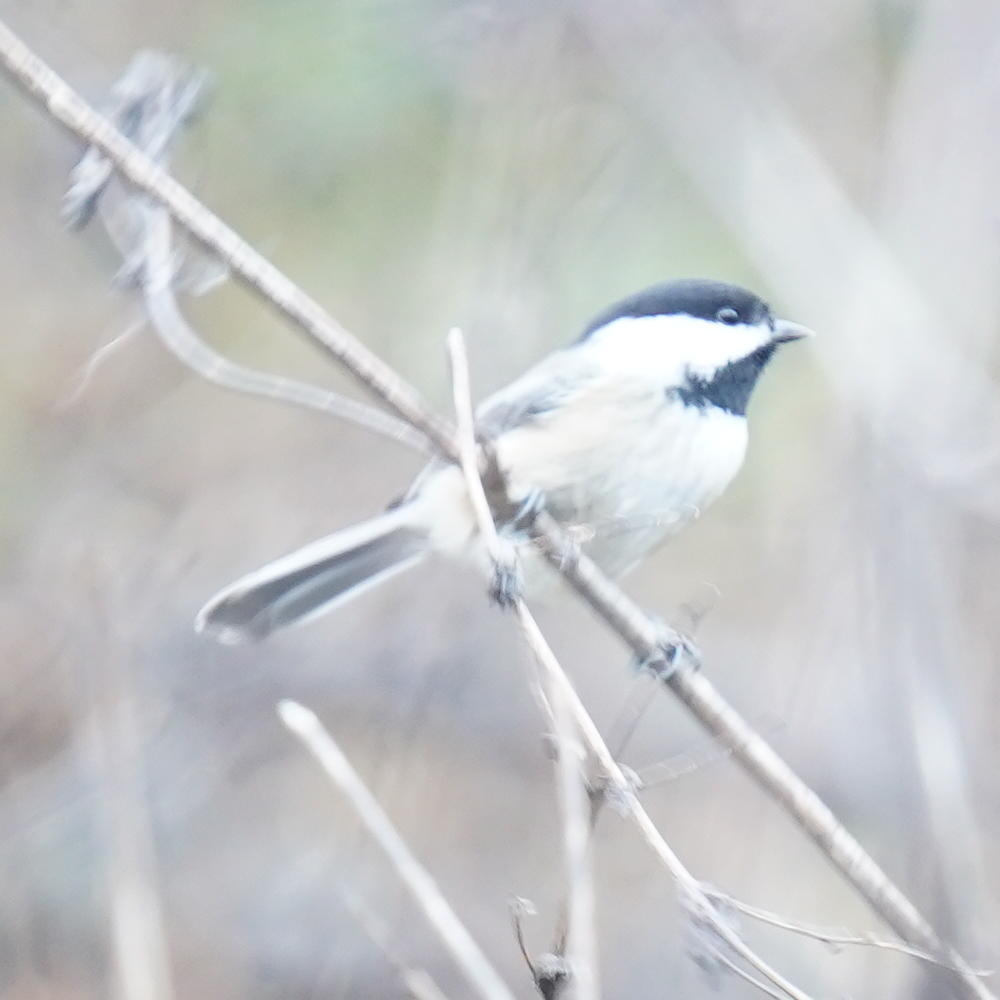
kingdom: Animalia
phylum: Chordata
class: Aves
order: Passeriformes
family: Paridae
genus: Poecile
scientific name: Poecile atricapillus
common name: Black-capped chickadee
